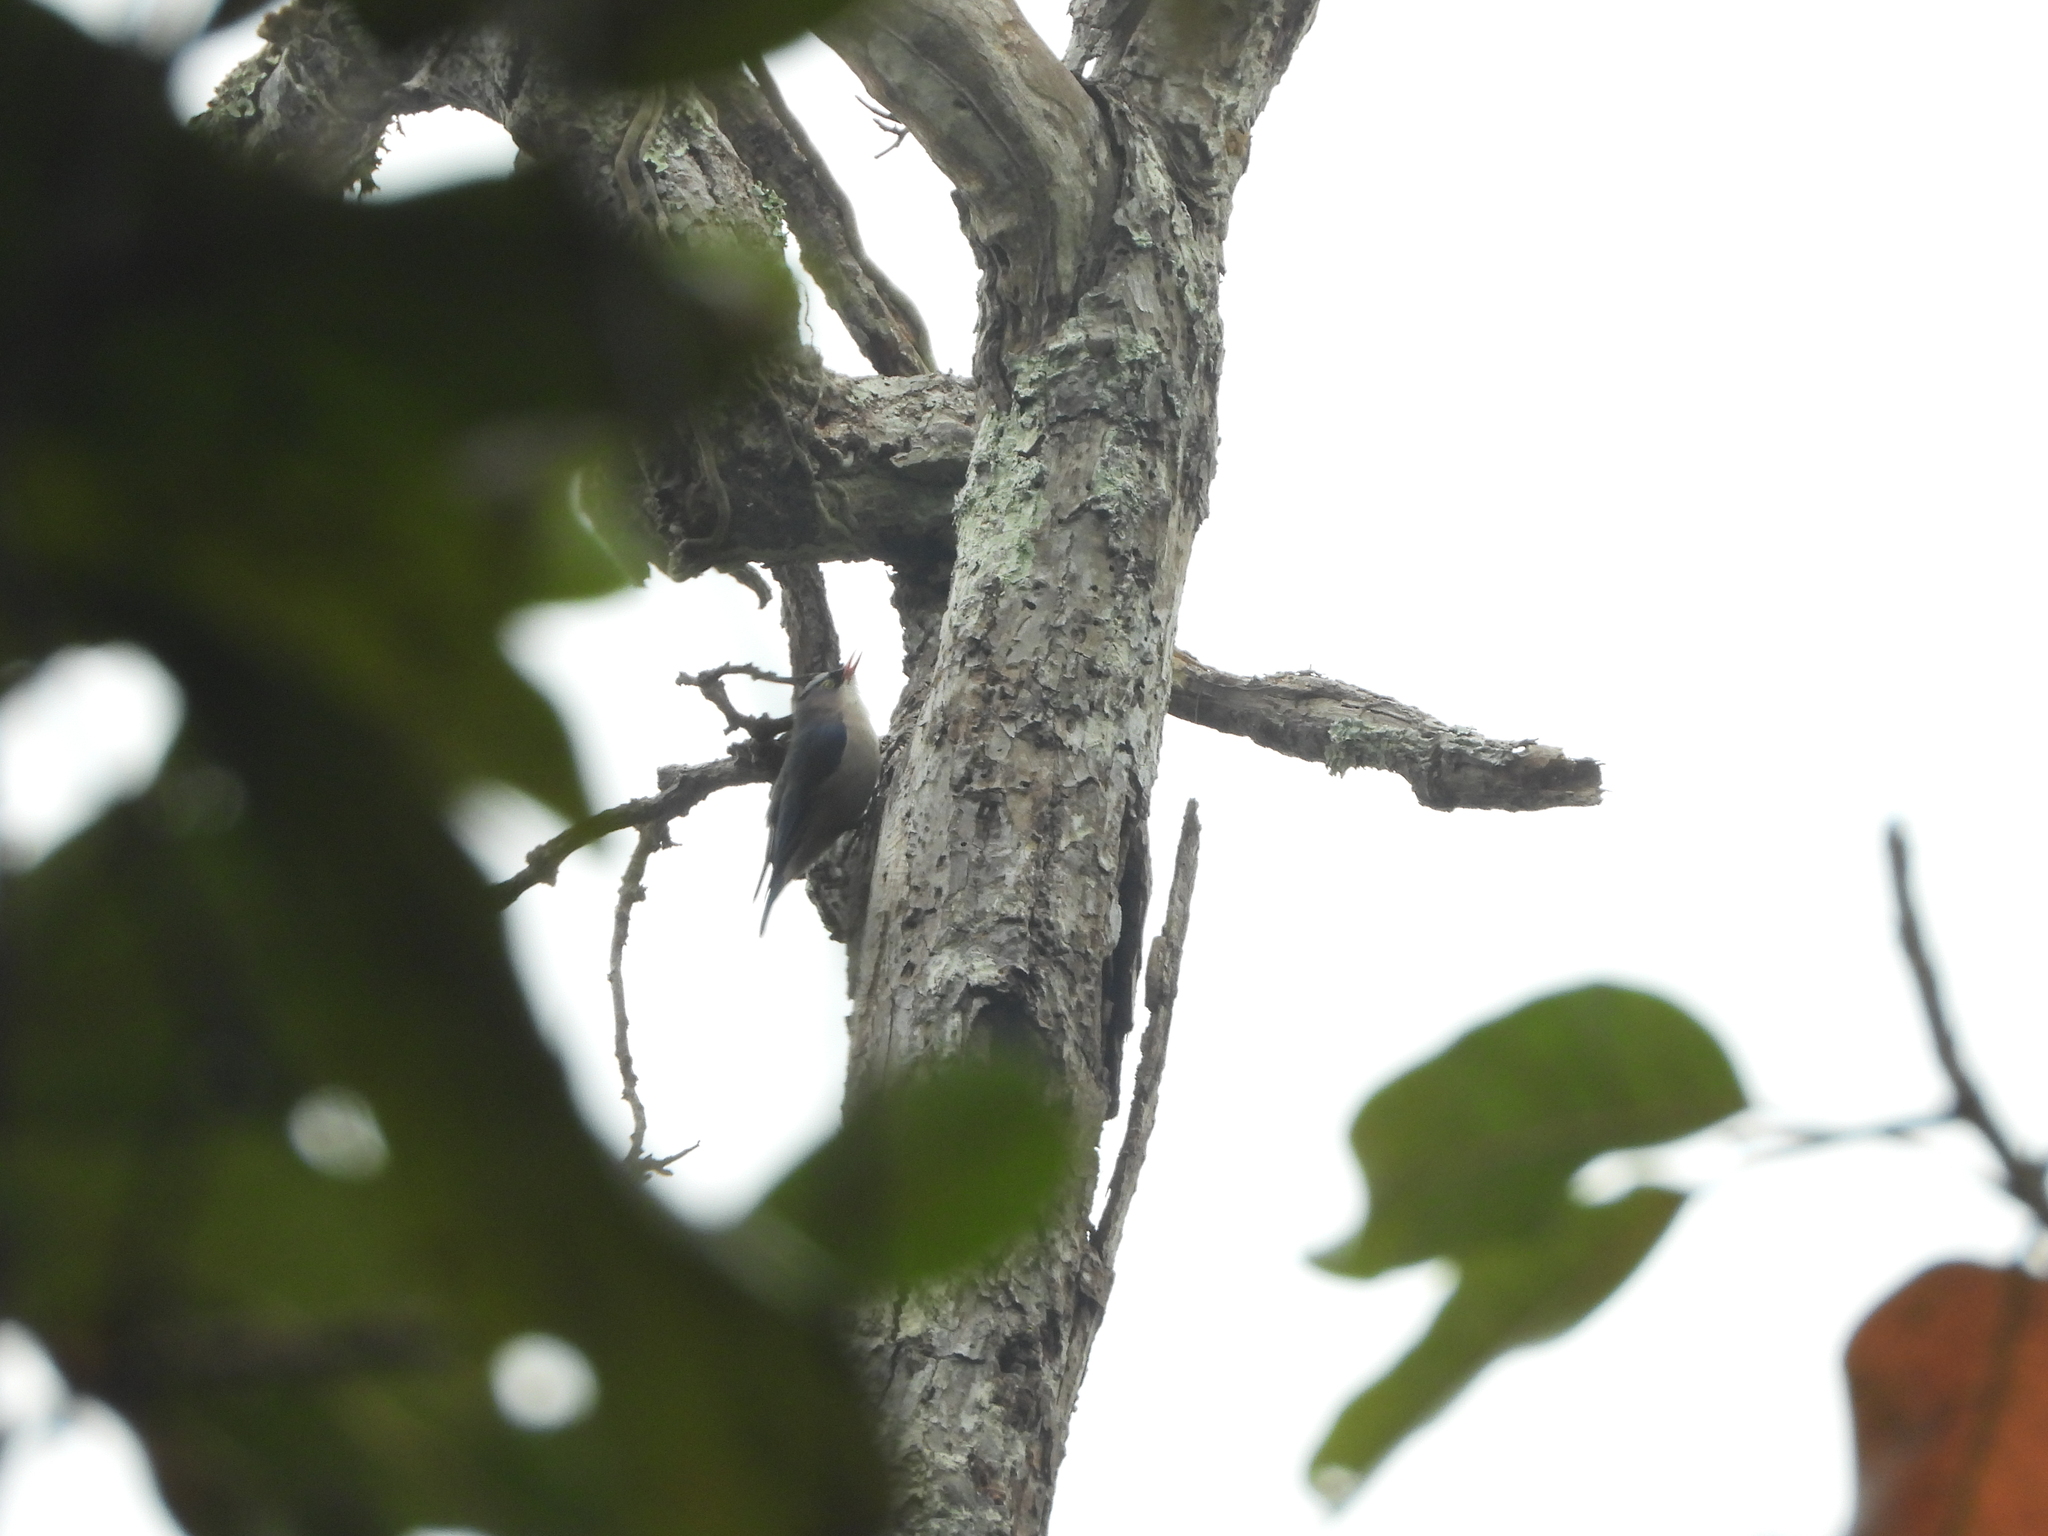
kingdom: Animalia
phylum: Chordata
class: Aves
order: Passeriformes
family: Sittidae
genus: Sitta
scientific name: Sitta frontalis
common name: Velvet-fronted nuthatch
